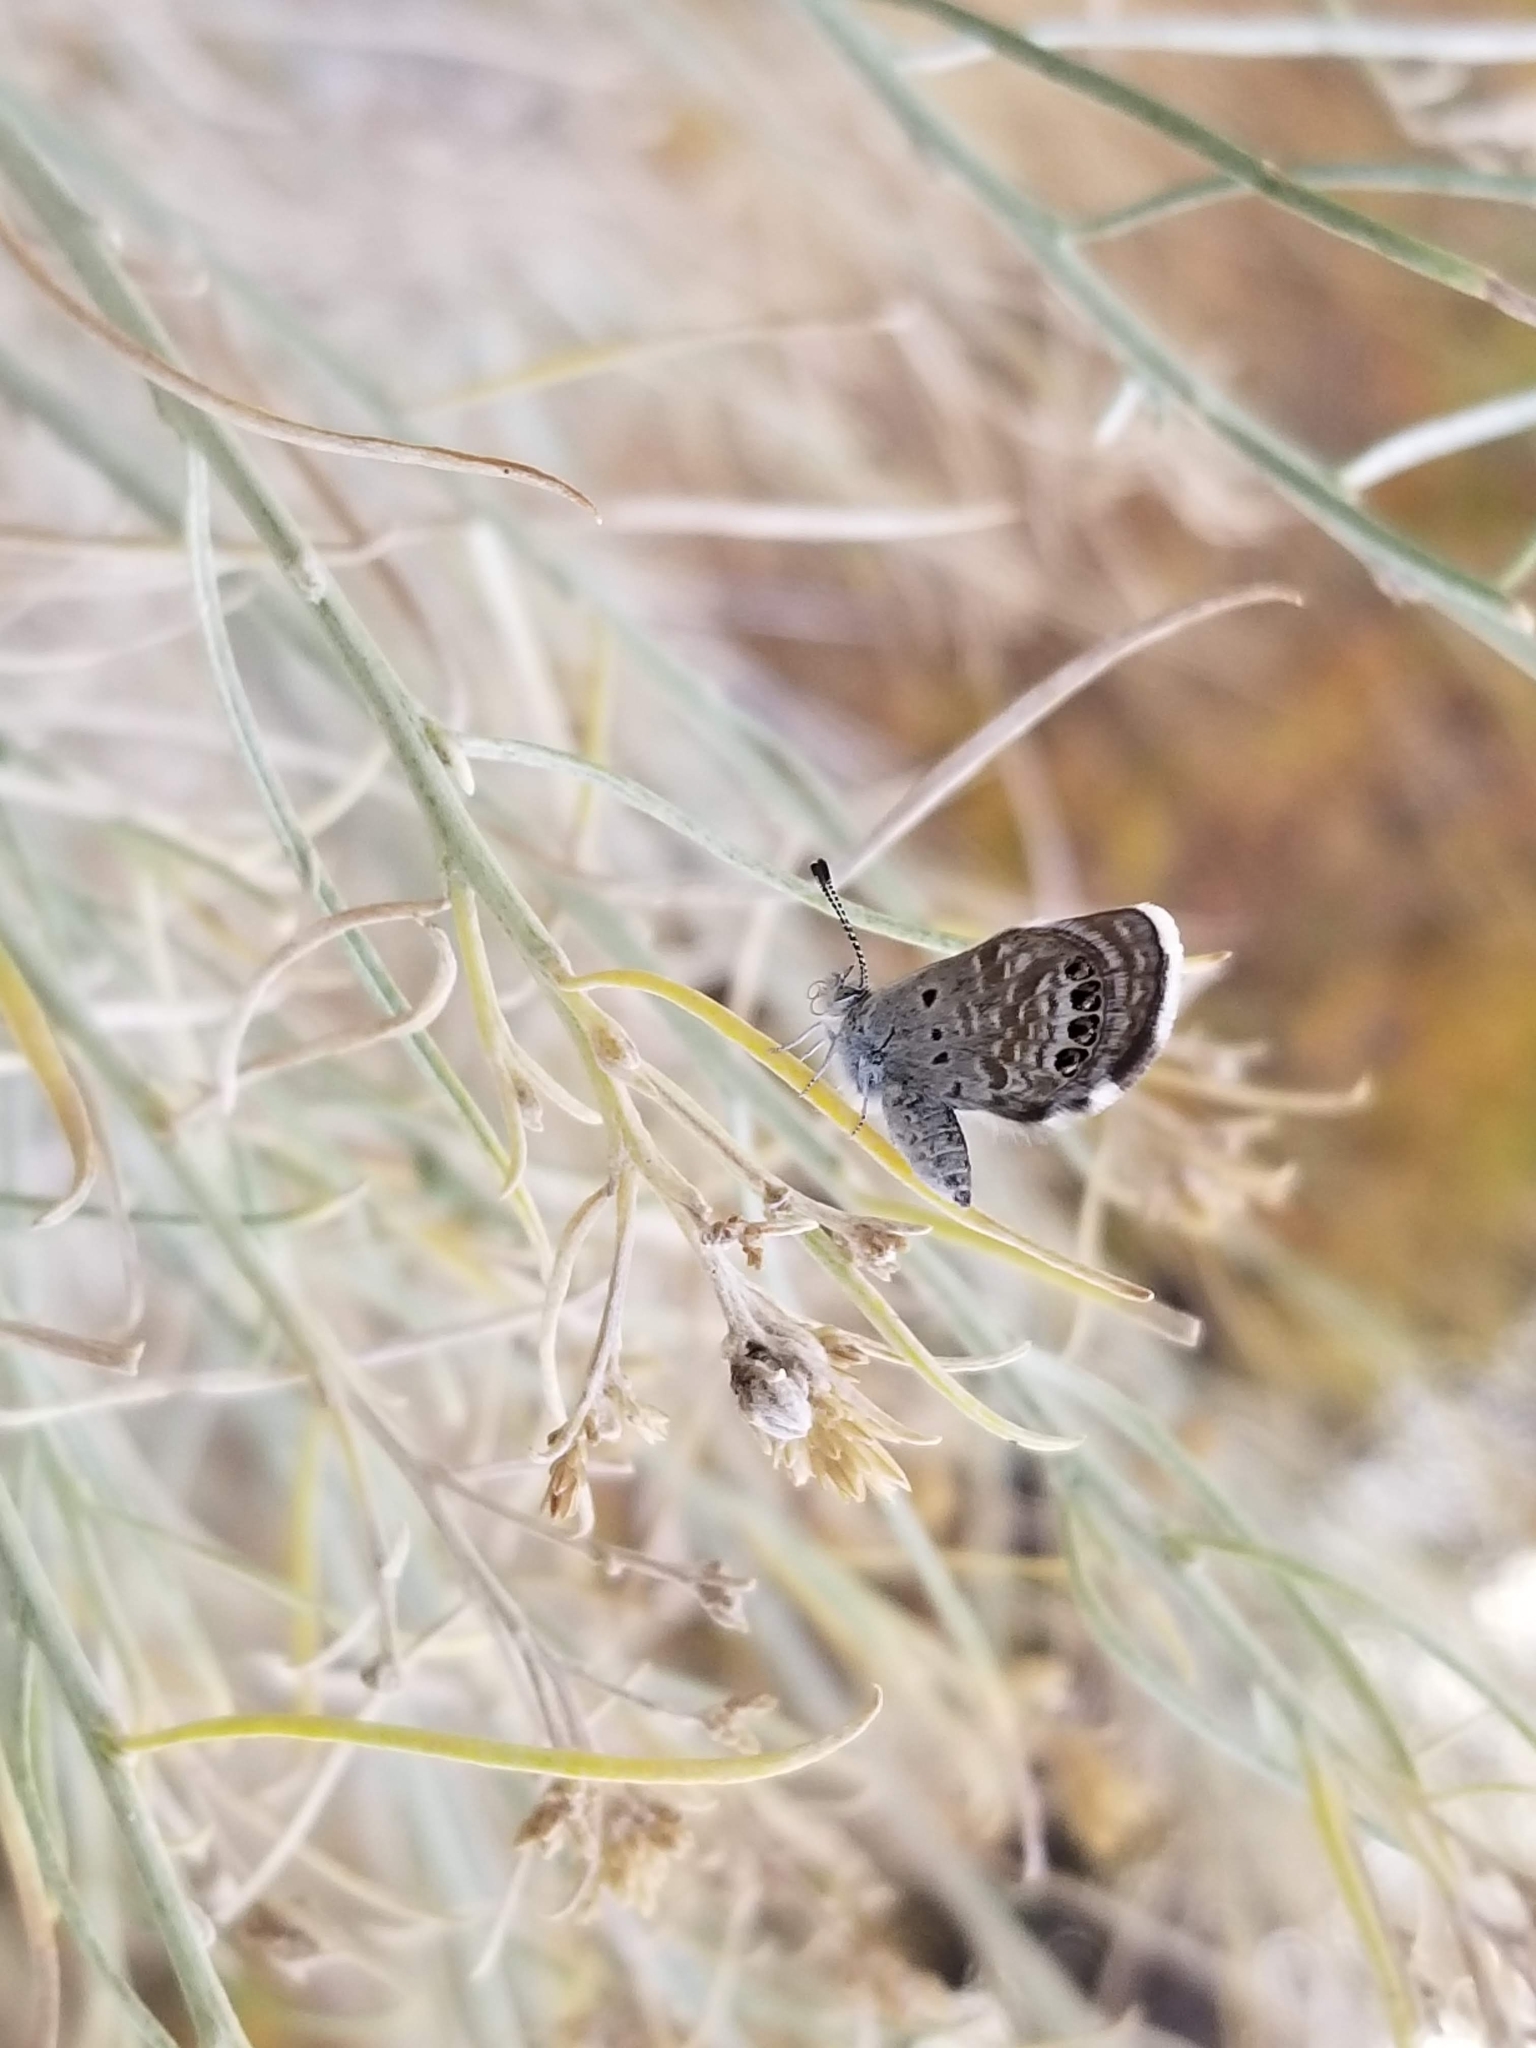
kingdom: Animalia
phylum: Arthropoda
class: Insecta
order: Lepidoptera
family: Lycaenidae
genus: Brephidium
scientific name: Brephidium exilis
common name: Pygmy blue
